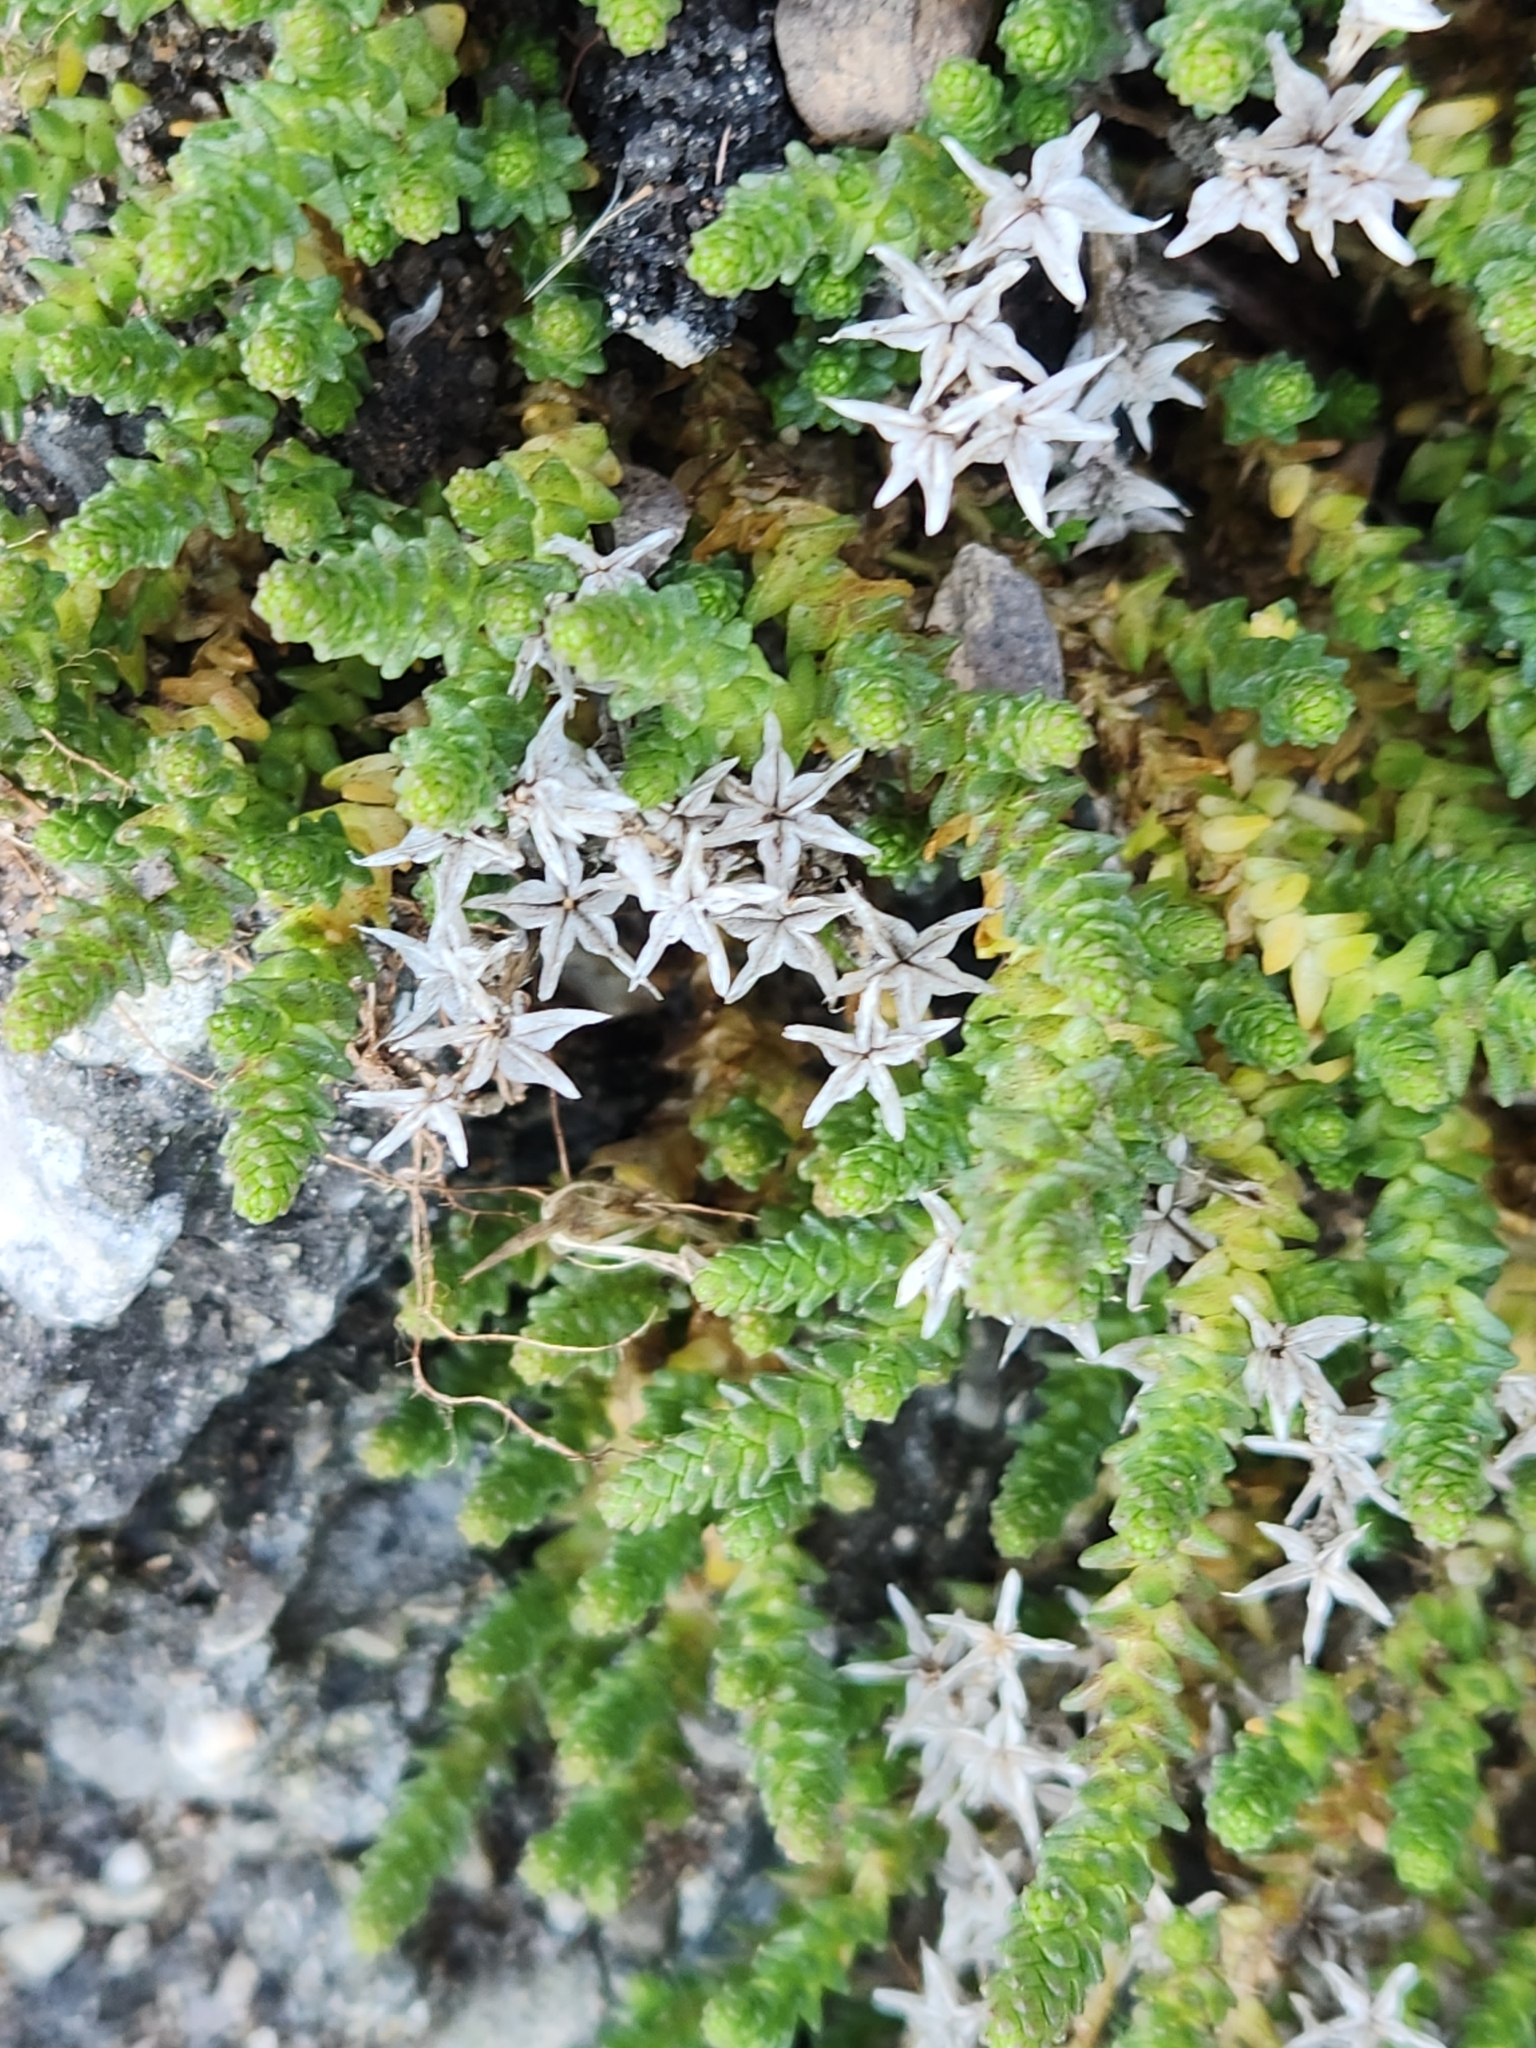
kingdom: Plantae
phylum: Tracheophyta
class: Magnoliopsida
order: Saxifragales
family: Crassulaceae
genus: Sedum
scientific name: Sedum acre
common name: Biting stonecrop
